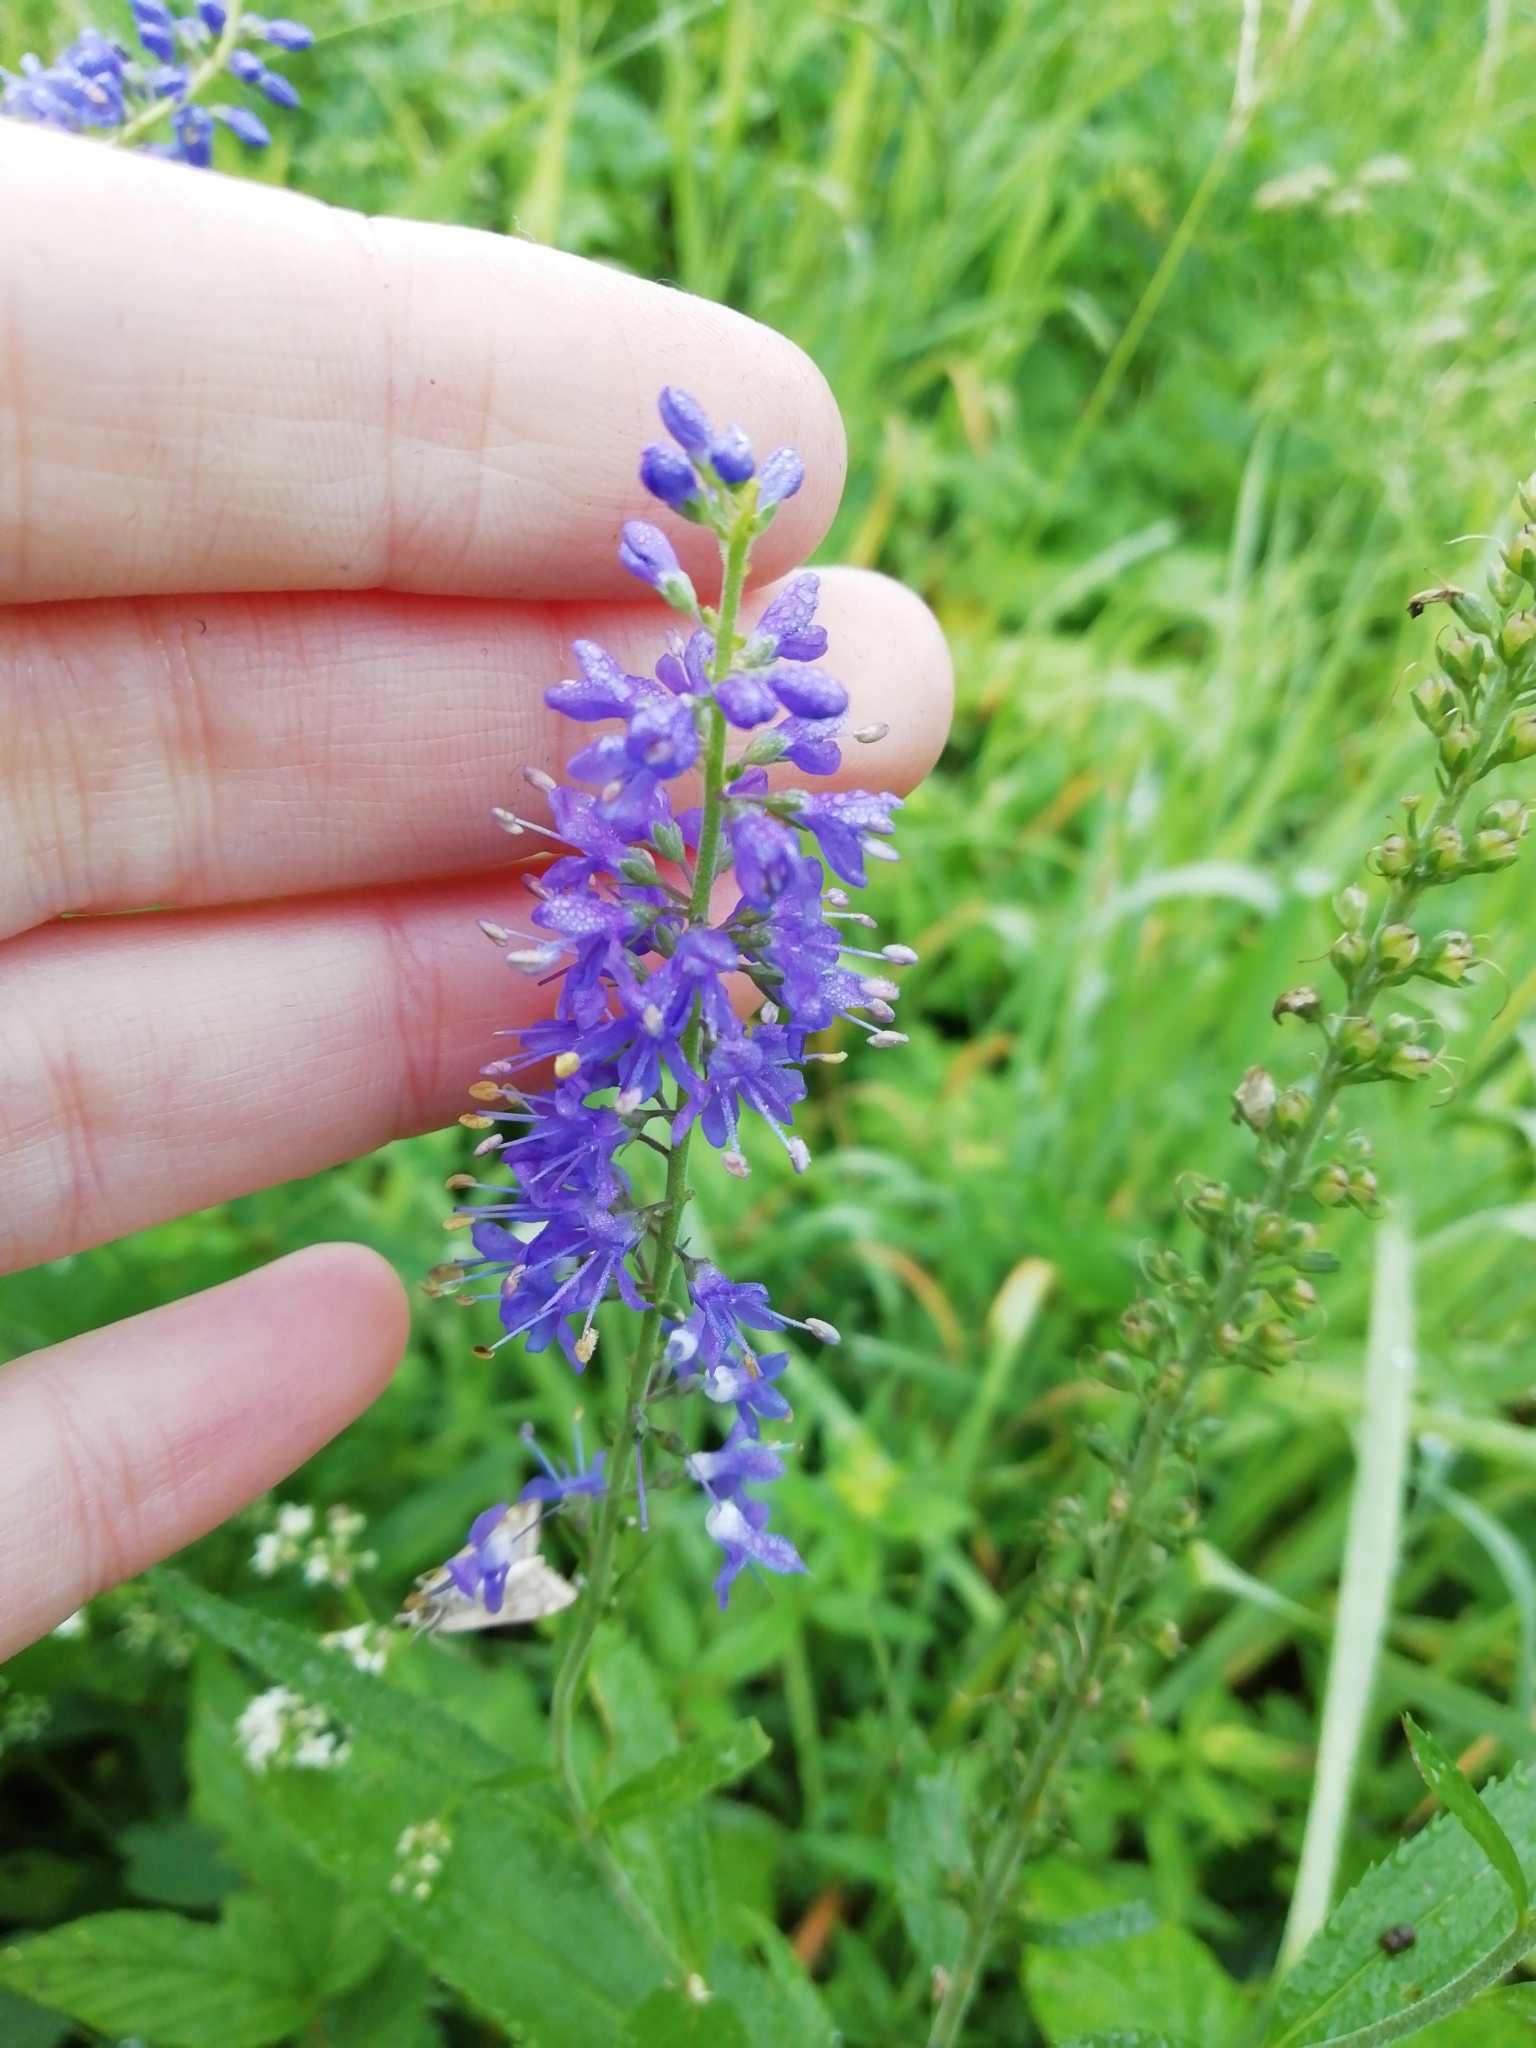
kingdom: Plantae
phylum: Tracheophyta
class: Magnoliopsida
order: Lamiales
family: Plantaginaceae
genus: Veronica
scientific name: Veronica longifolia
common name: Garden speedwell
